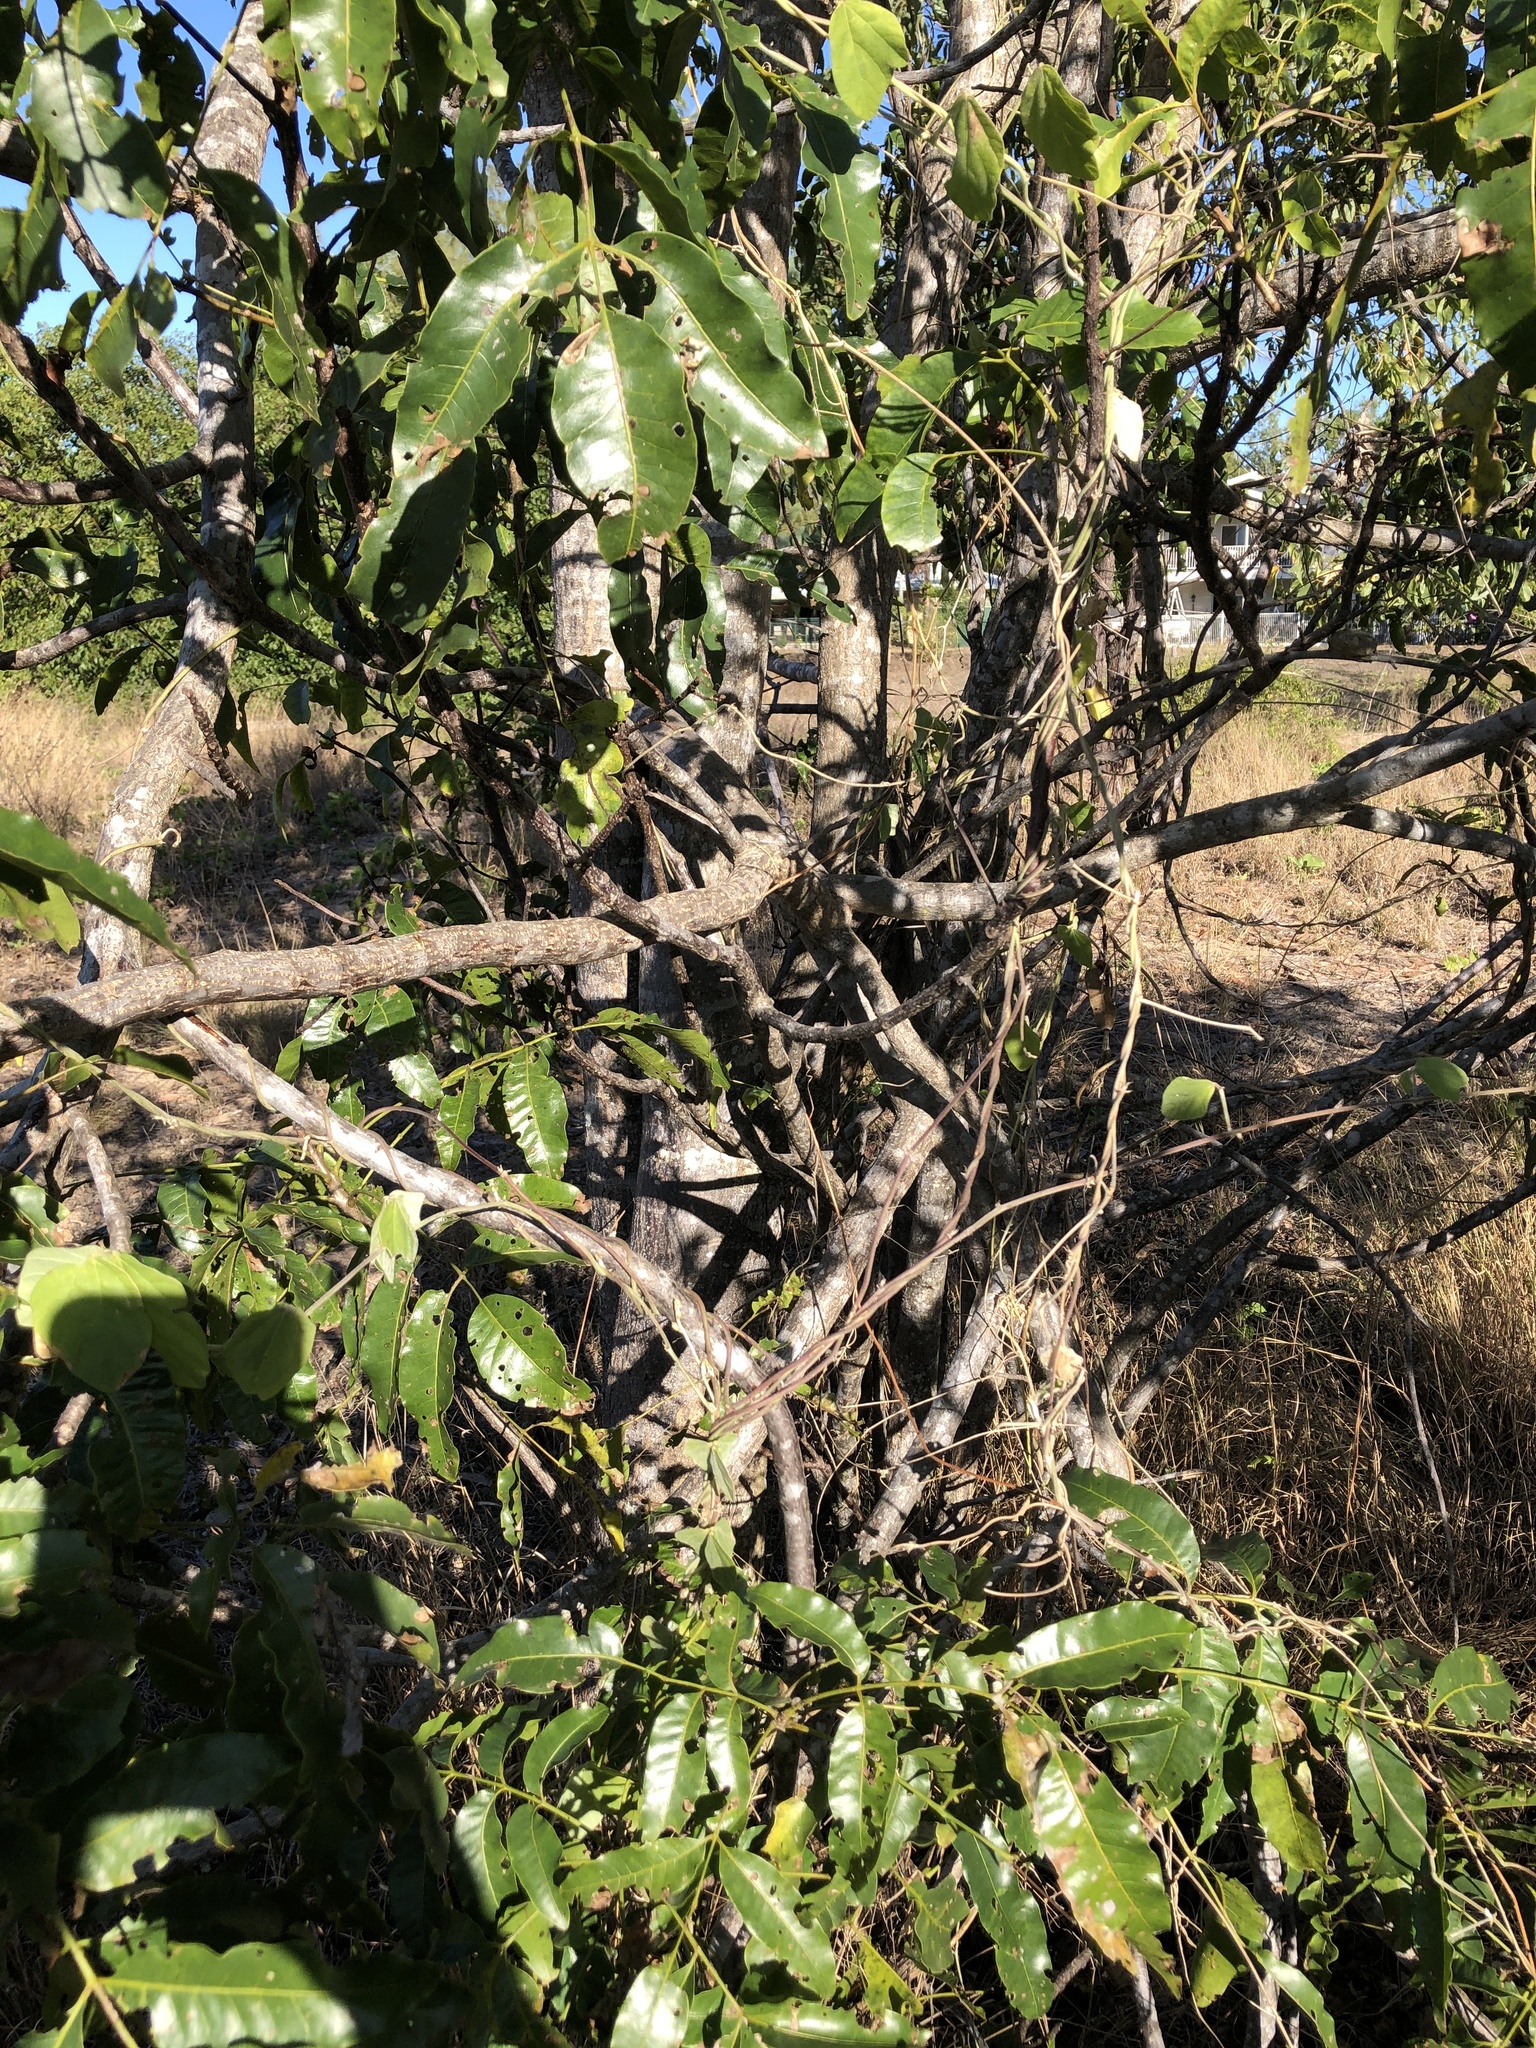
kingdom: Plantae
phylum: Tracheophyta
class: Magnoliopsida
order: Sapindales
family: Anacardiaceae
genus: Pleiogynium
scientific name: Pleiogynium timoriense
